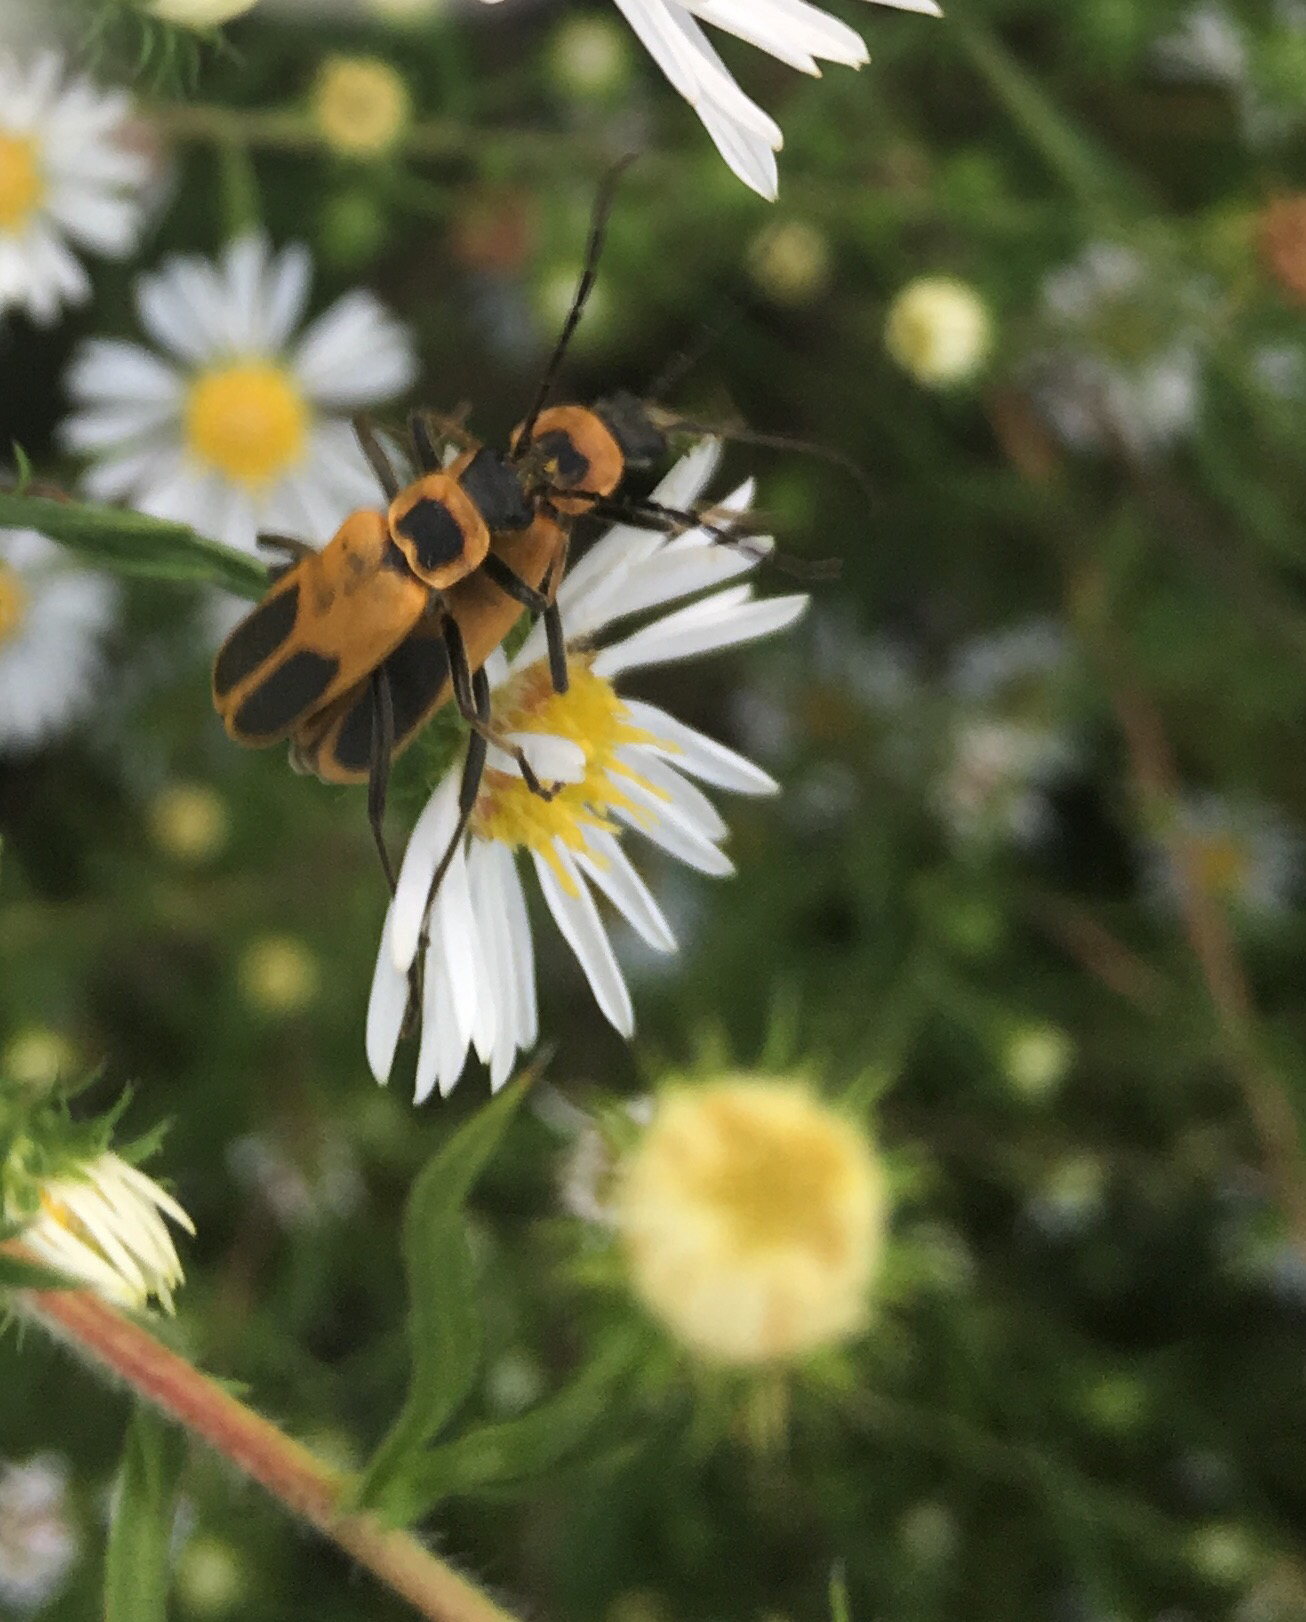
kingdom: Animalia
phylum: Arthropoda
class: Insecta
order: Coleoptera
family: Cantharidae
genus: Chauliognathus
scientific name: Chauliognathus pensylvanicus
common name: Goldenrod soldier beetle
